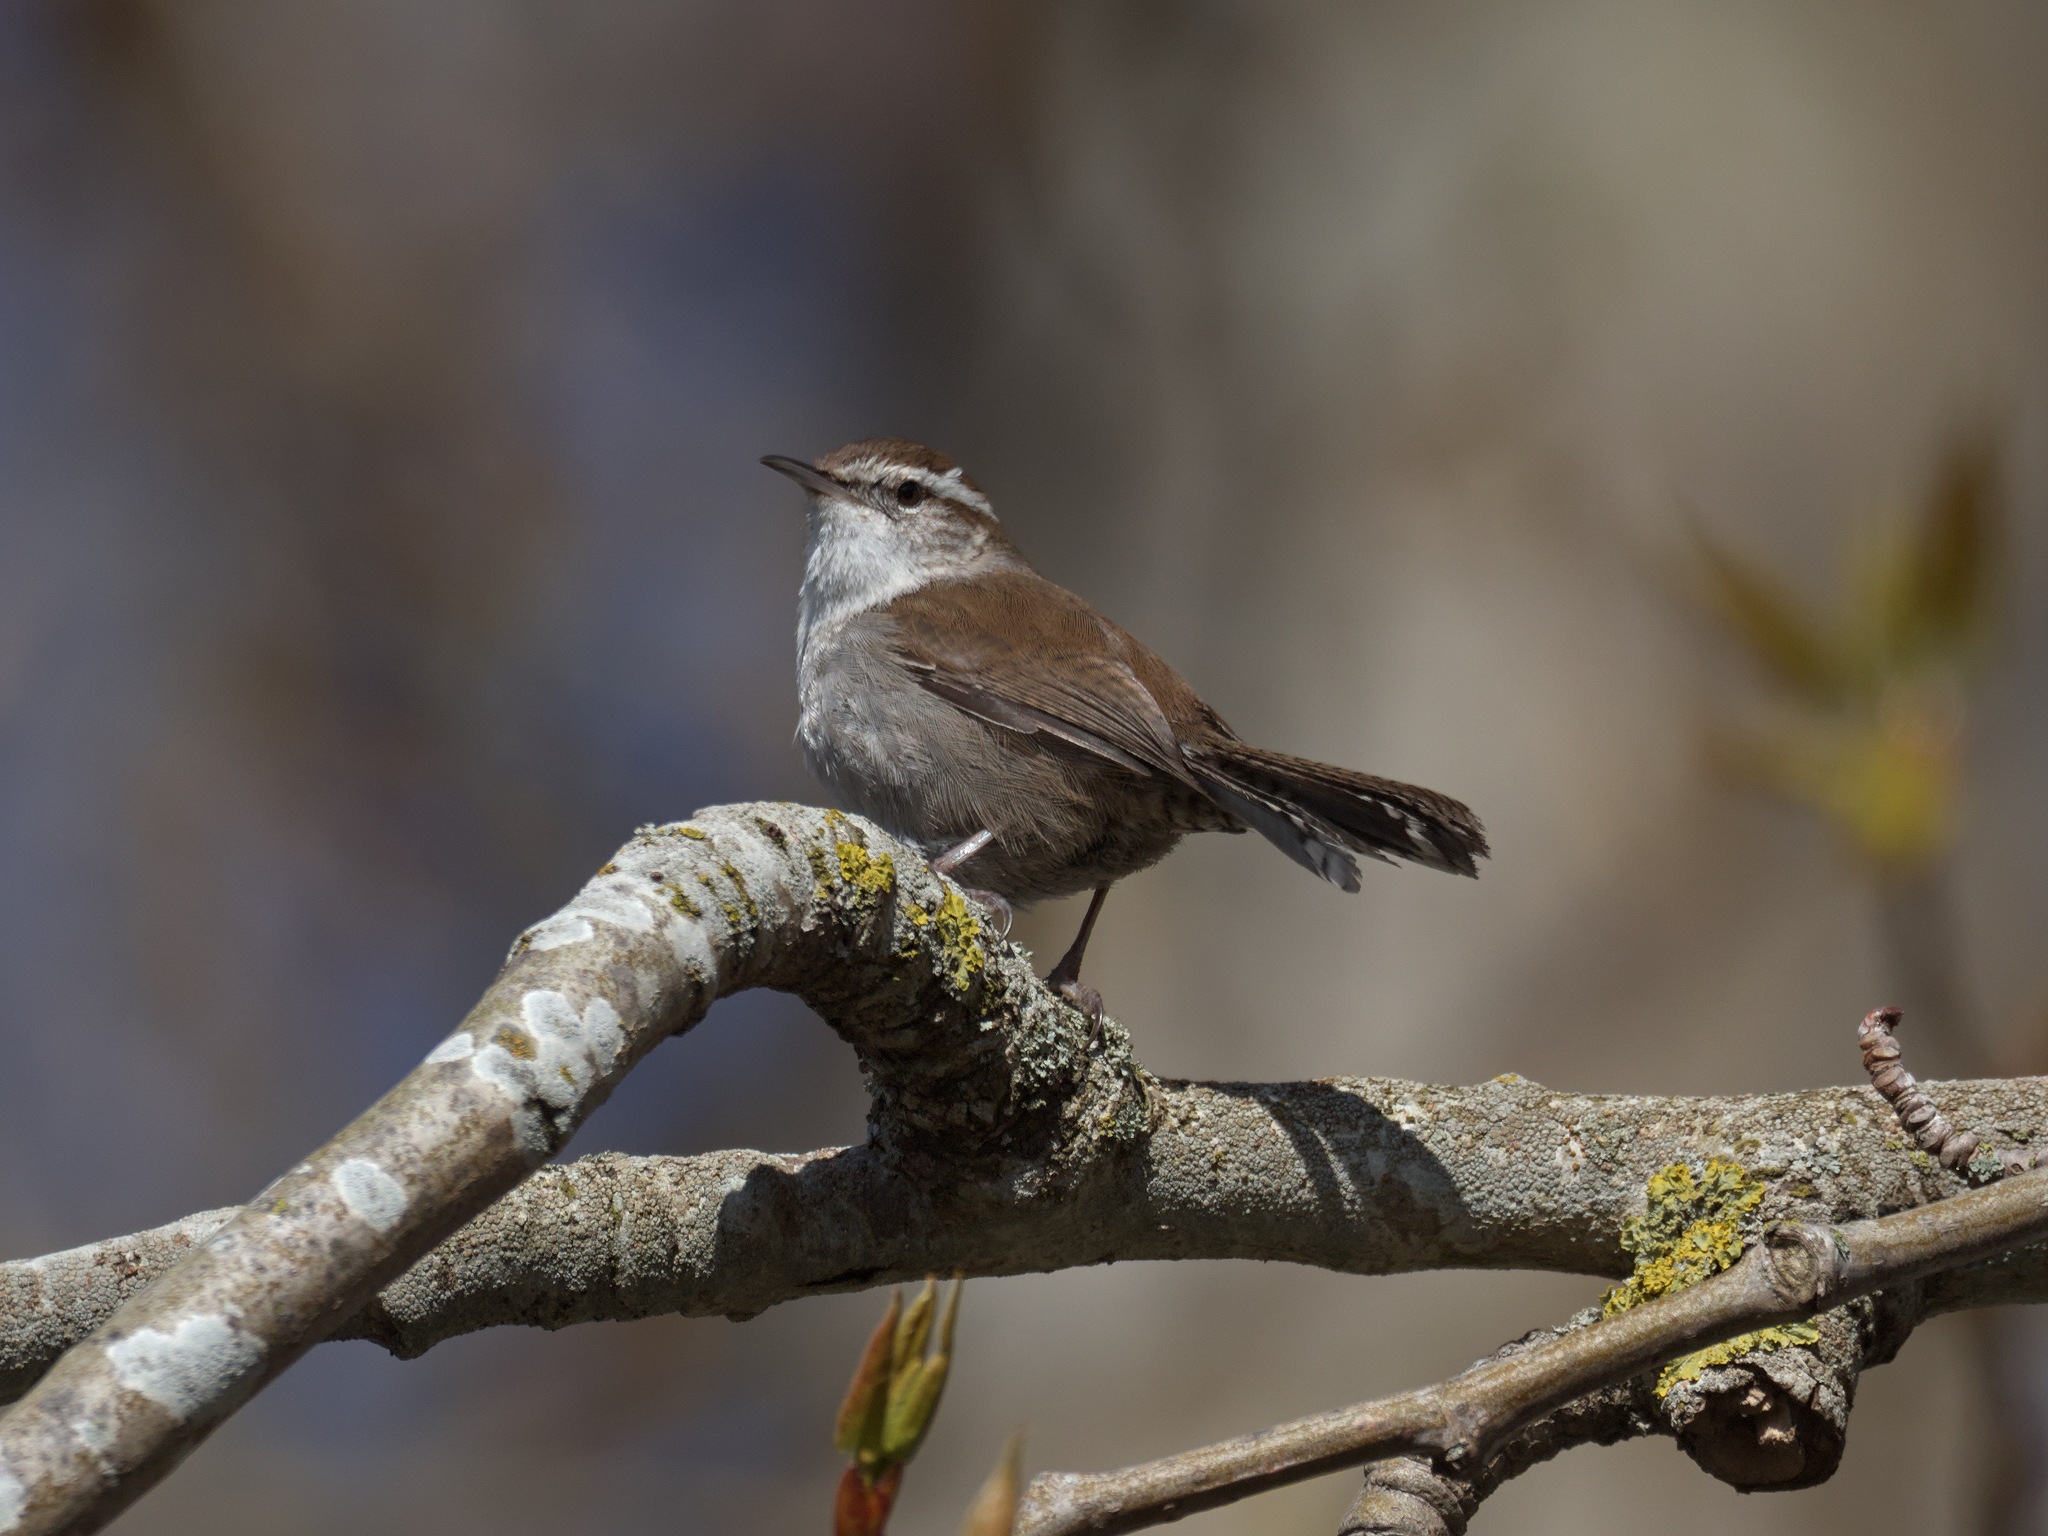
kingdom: Animalia
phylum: Chordata
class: Aves
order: Passeriformes
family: Troglodytidae
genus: Thryomanes
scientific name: Thryomanes bewickii
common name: Bewick's wren
